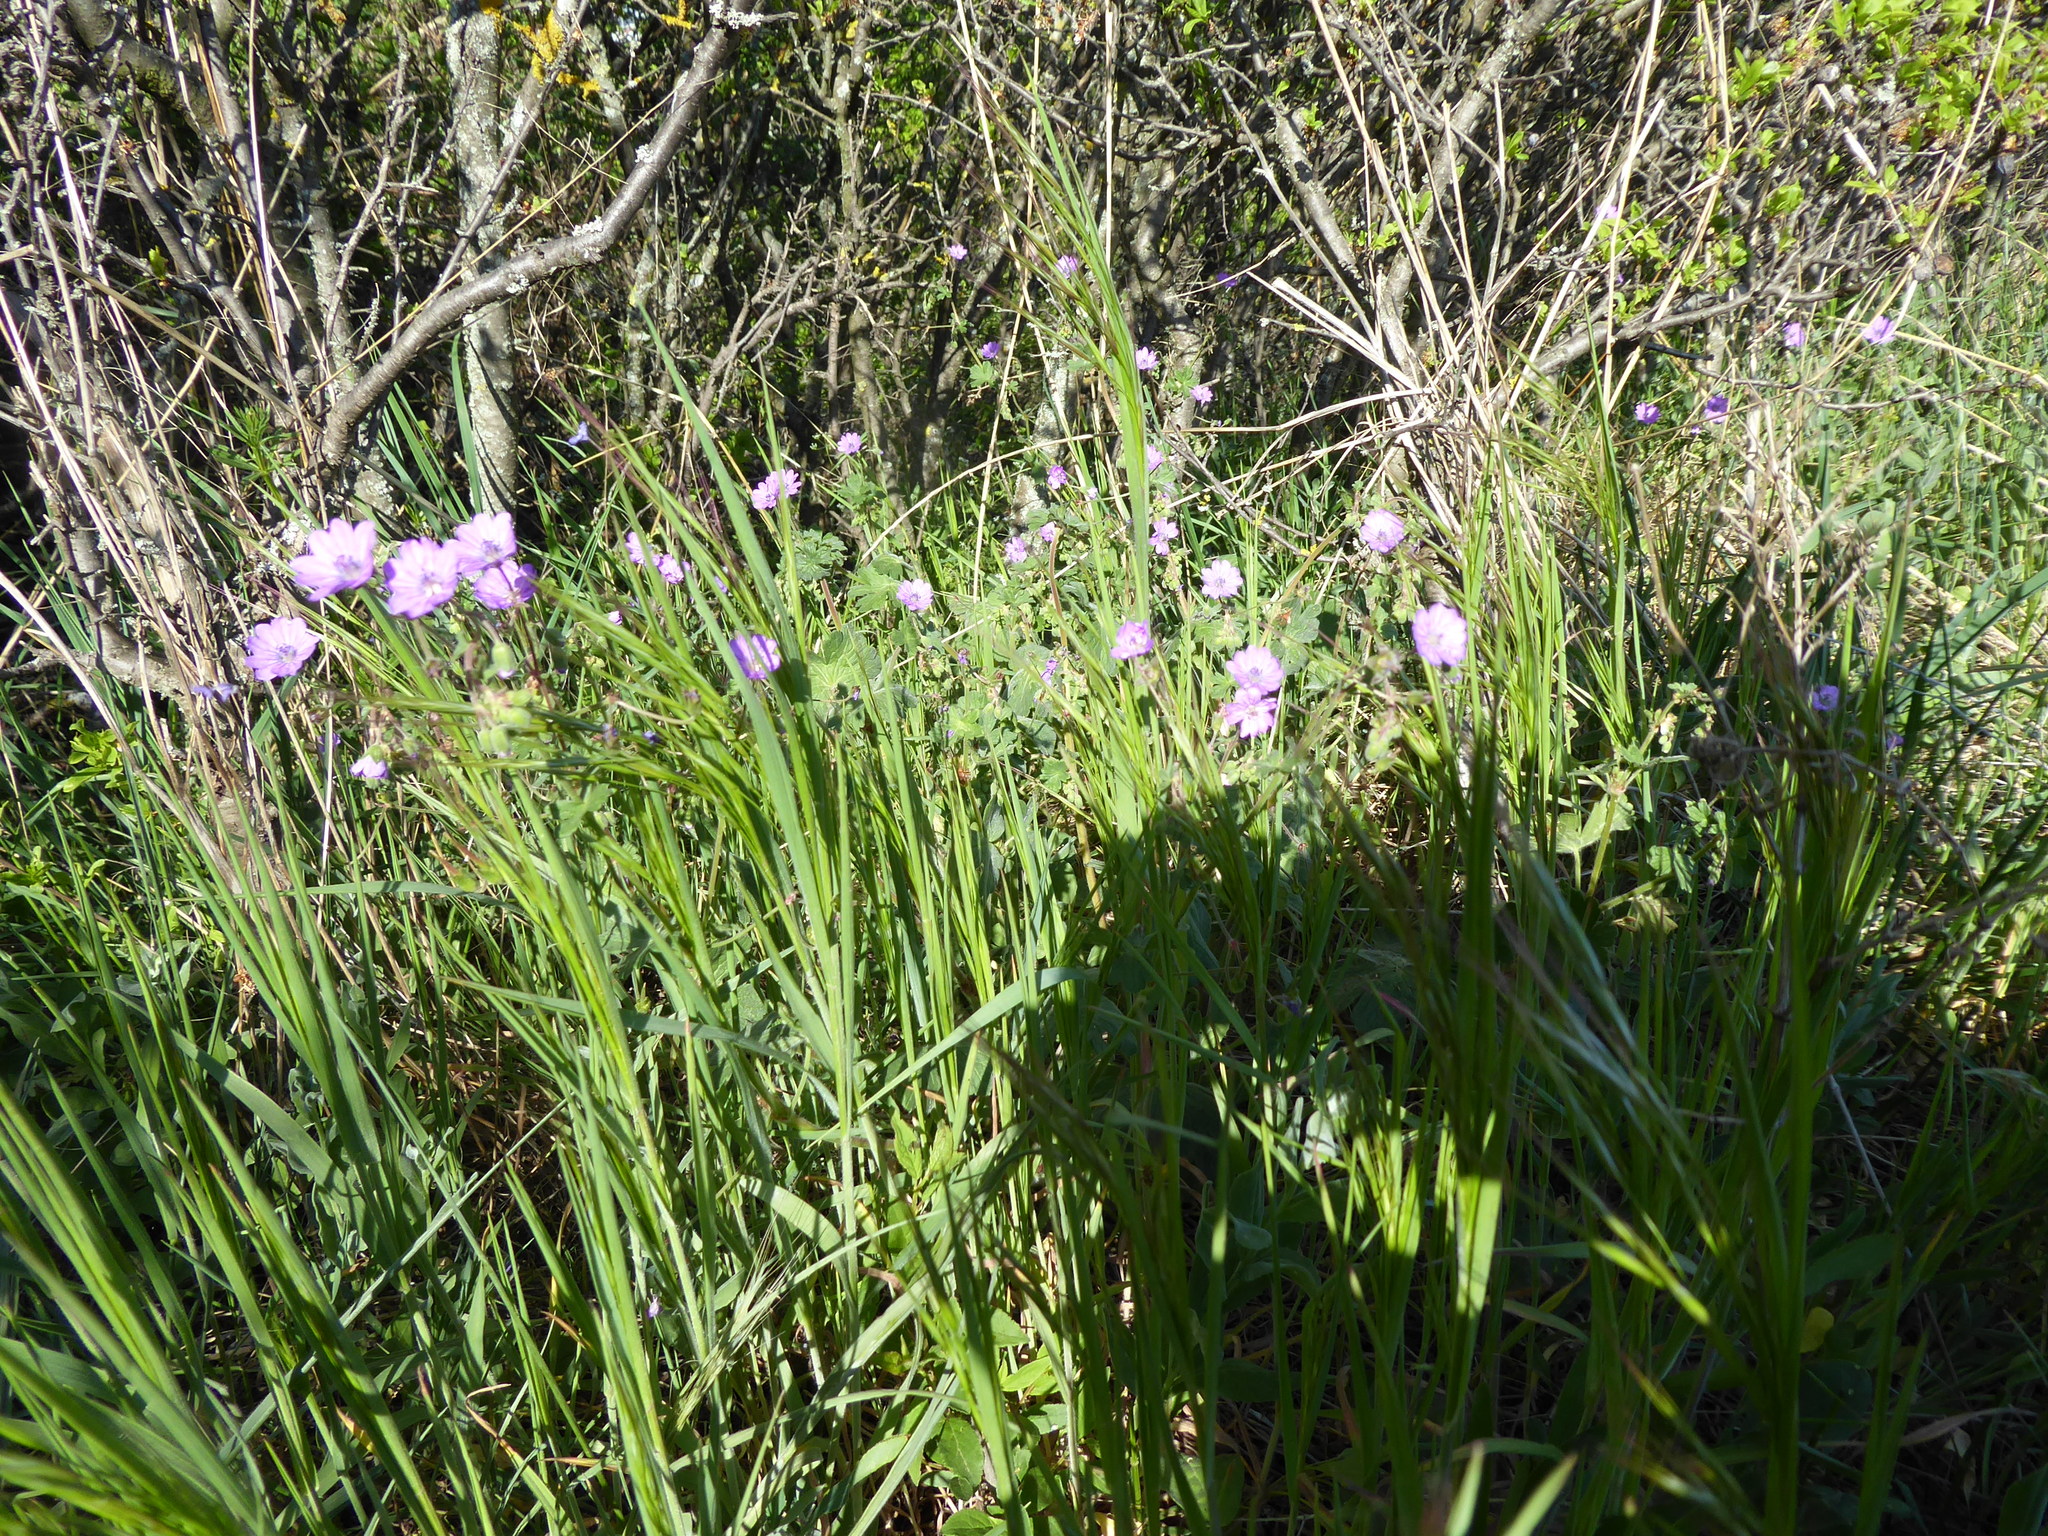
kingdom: Plantae
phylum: Tracheophyta
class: Magnoliopsida
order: Geraniales
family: Geraniaceae
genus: Geranium
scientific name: Geranium pyrenaicum
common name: Hedgerow crane's-bill
